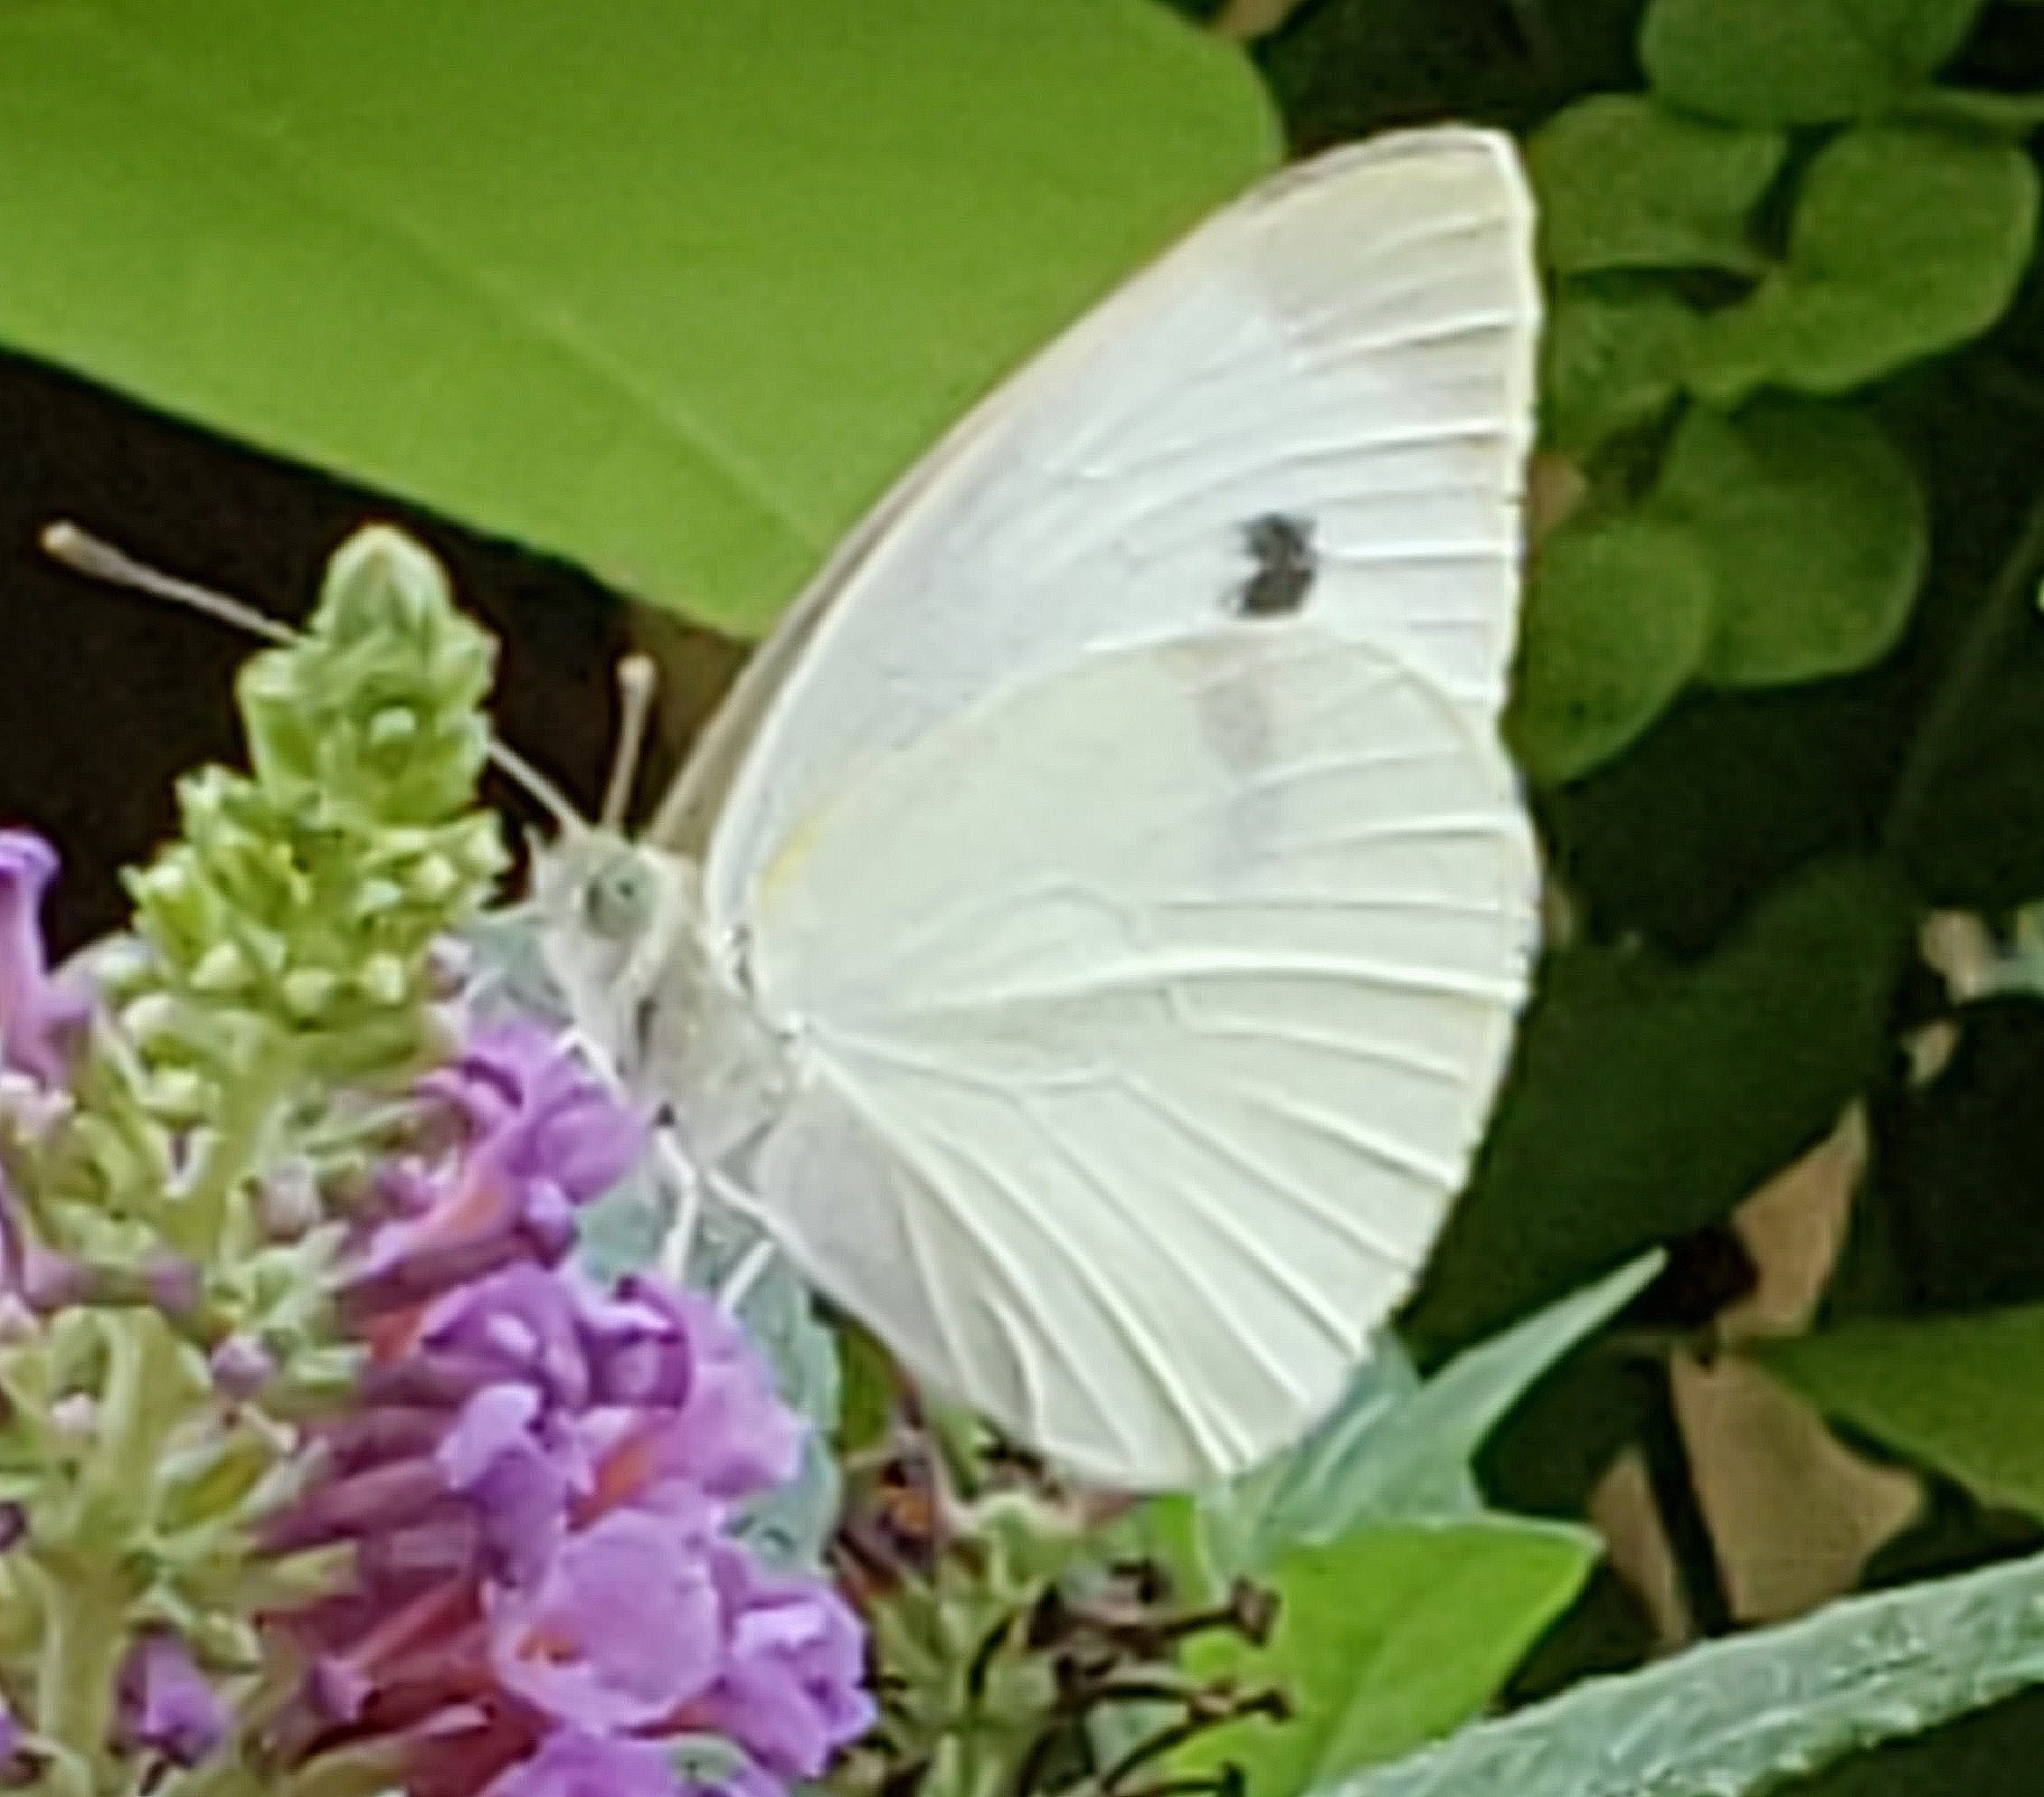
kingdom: Animalia
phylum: Arthropoda
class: Insecta
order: Lepidoptera
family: Pieridae
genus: Pieris
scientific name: Pieris rapae
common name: Small white
